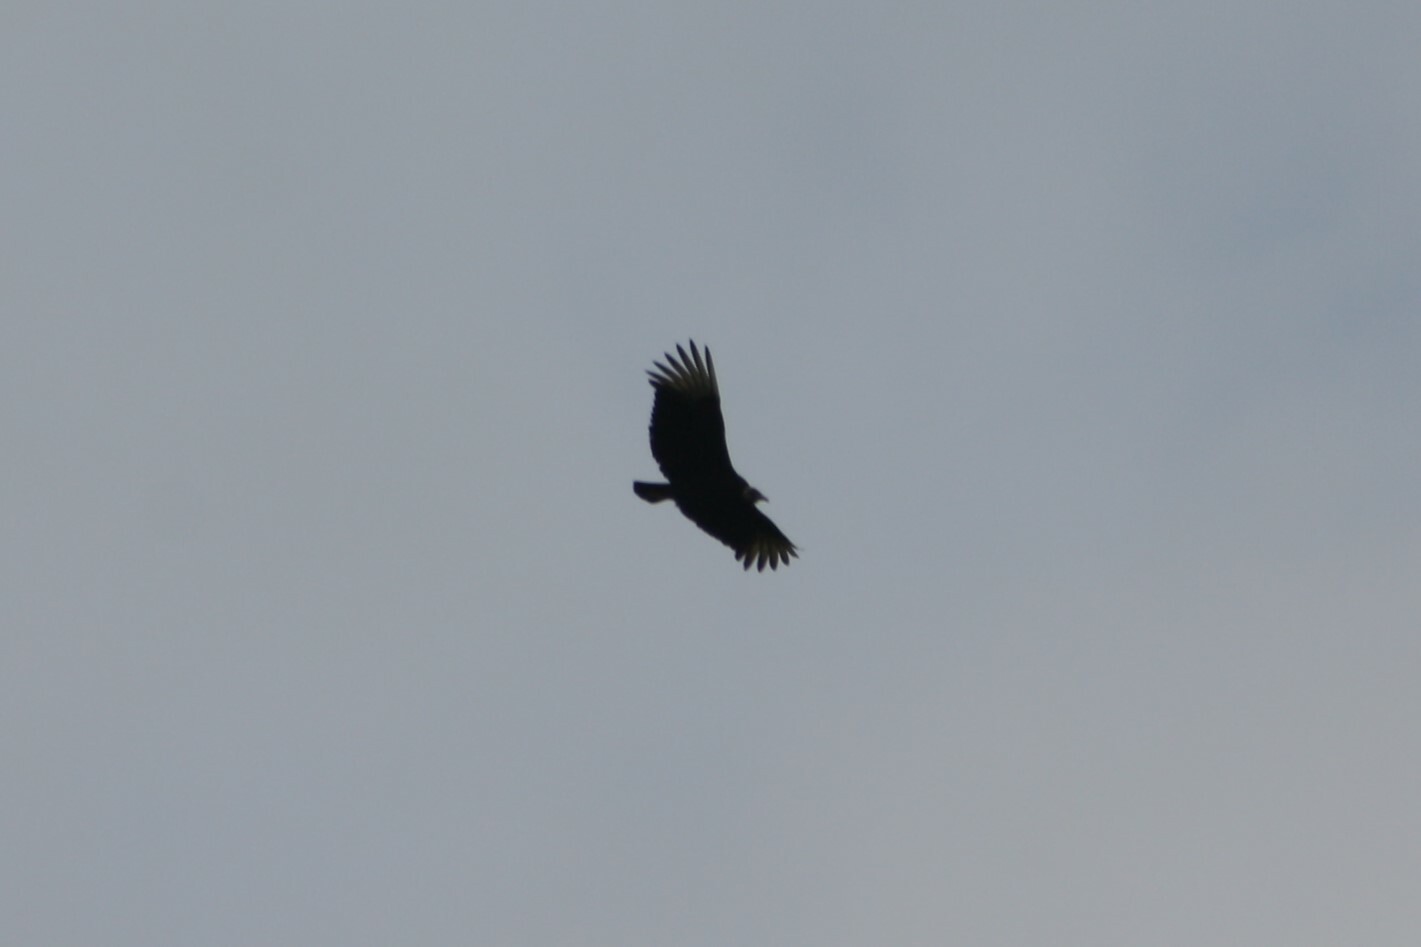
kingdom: Animalia
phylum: Chordata
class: Aves
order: Accipitriformes
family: Cathartidae
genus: Coragyps
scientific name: Coragyps atratus
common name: Black vulture
